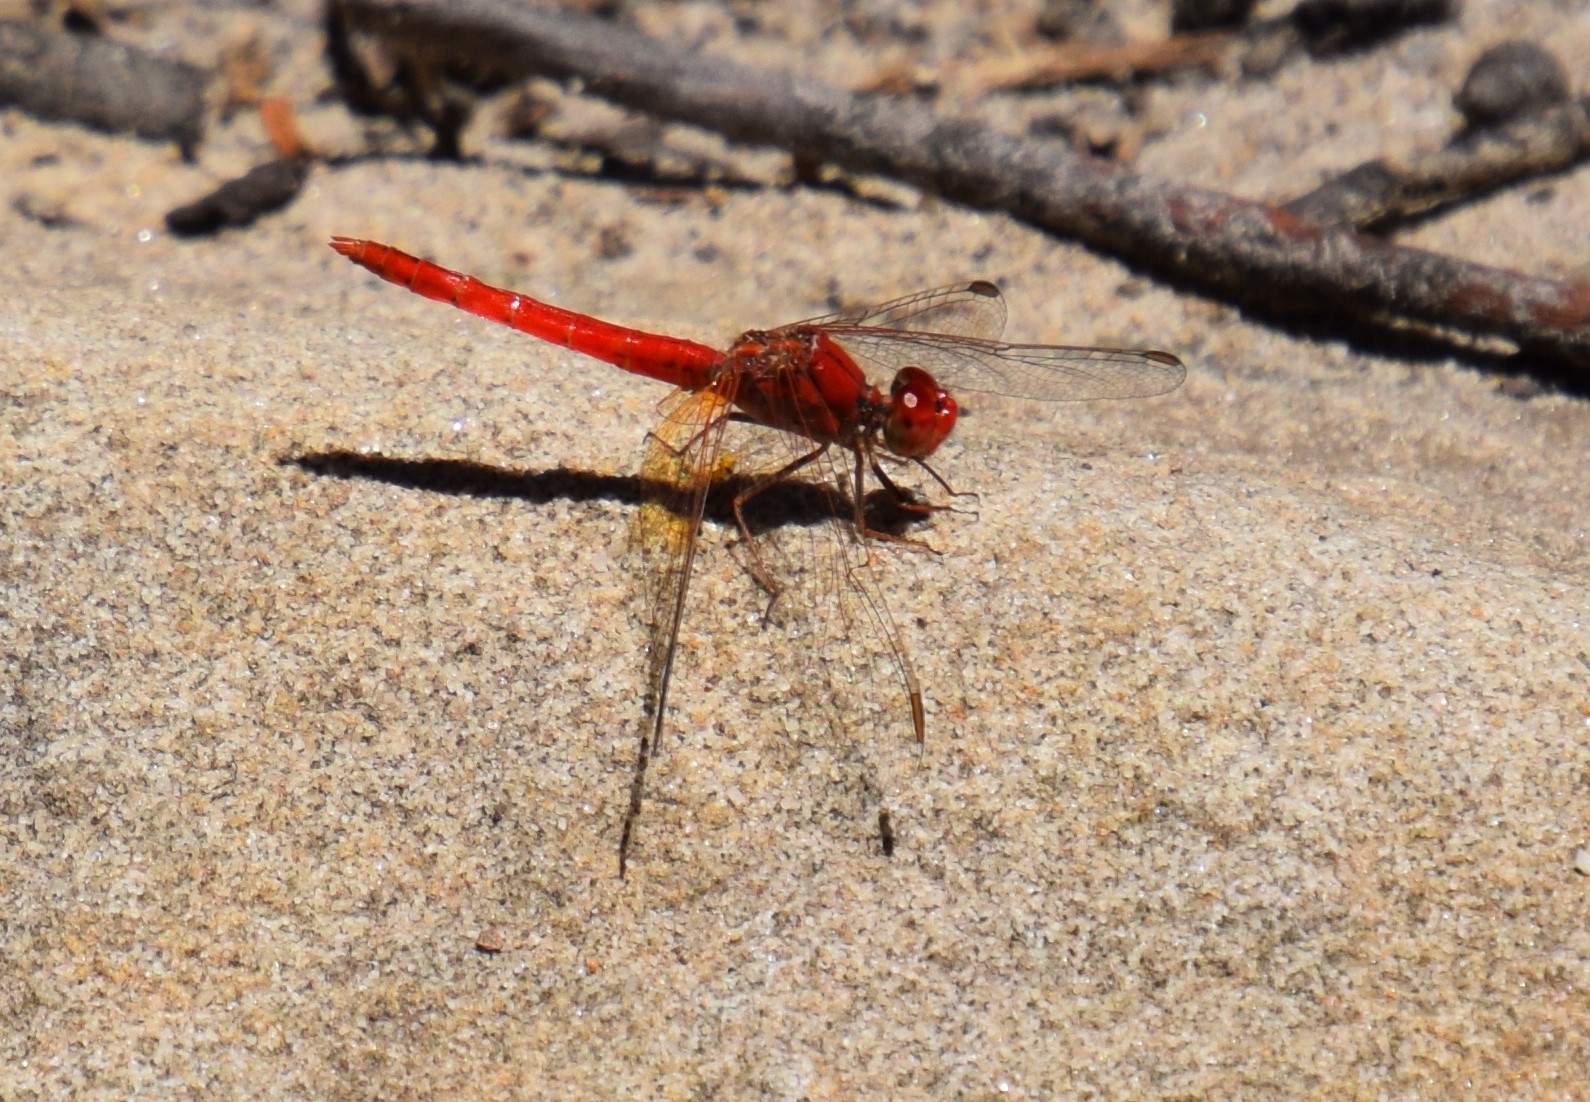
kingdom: Animalia
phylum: Arthropoda
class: Insecta
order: Odonata
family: Libellulidae
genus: Diplacodes
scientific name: Diplacodes haematodes
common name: Scarlet percher
